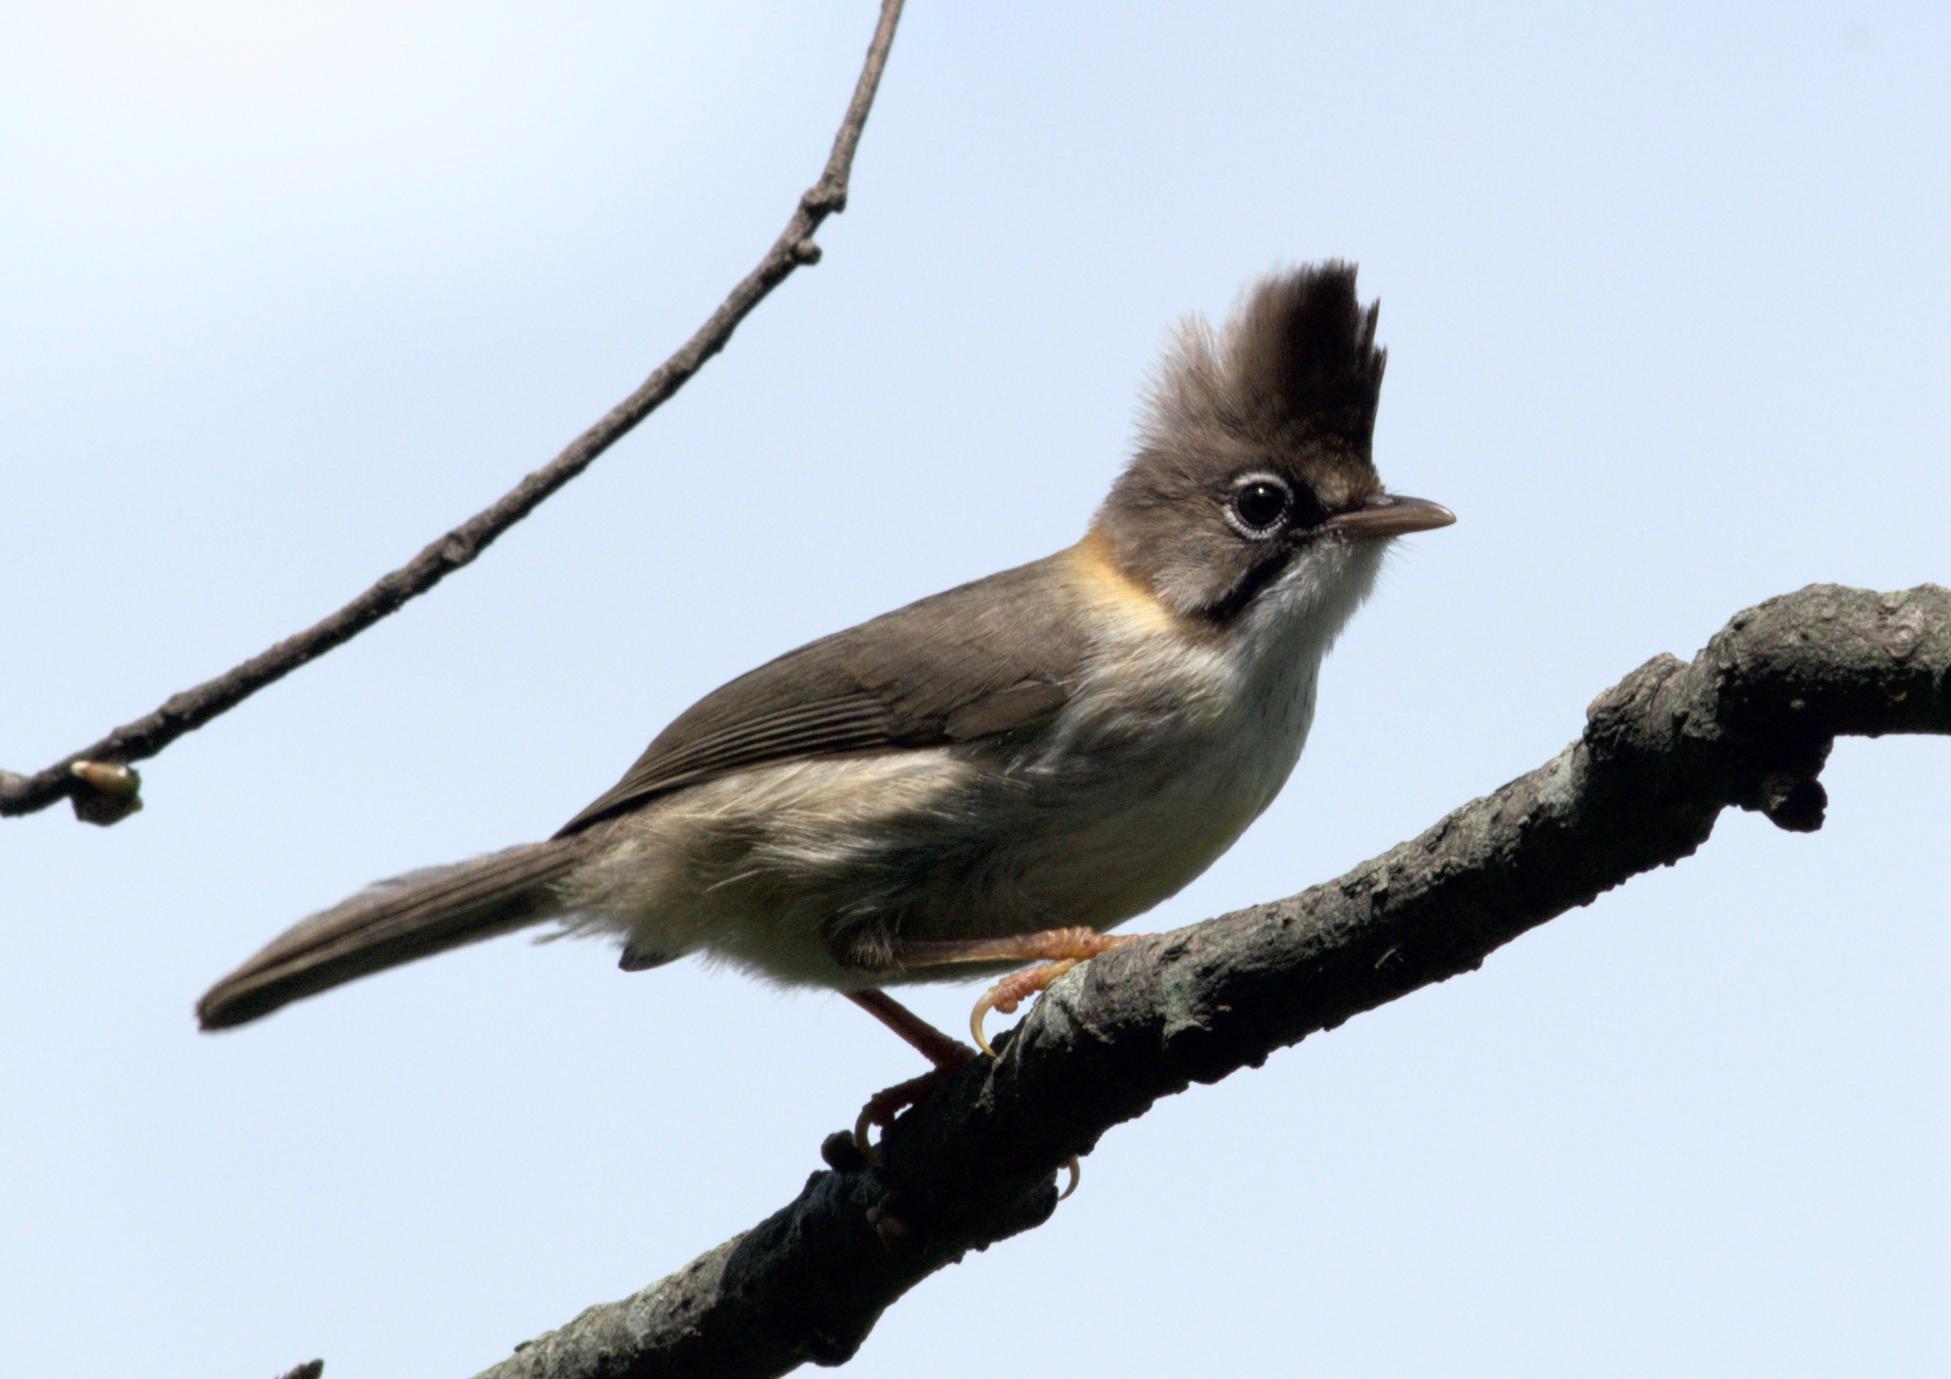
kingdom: Animalia
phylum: Chordata
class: Aves
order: Passeriformes
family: Zosteropidae
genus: Yuhina
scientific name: Yuhina flavicollis
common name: Whiskered yuhina
